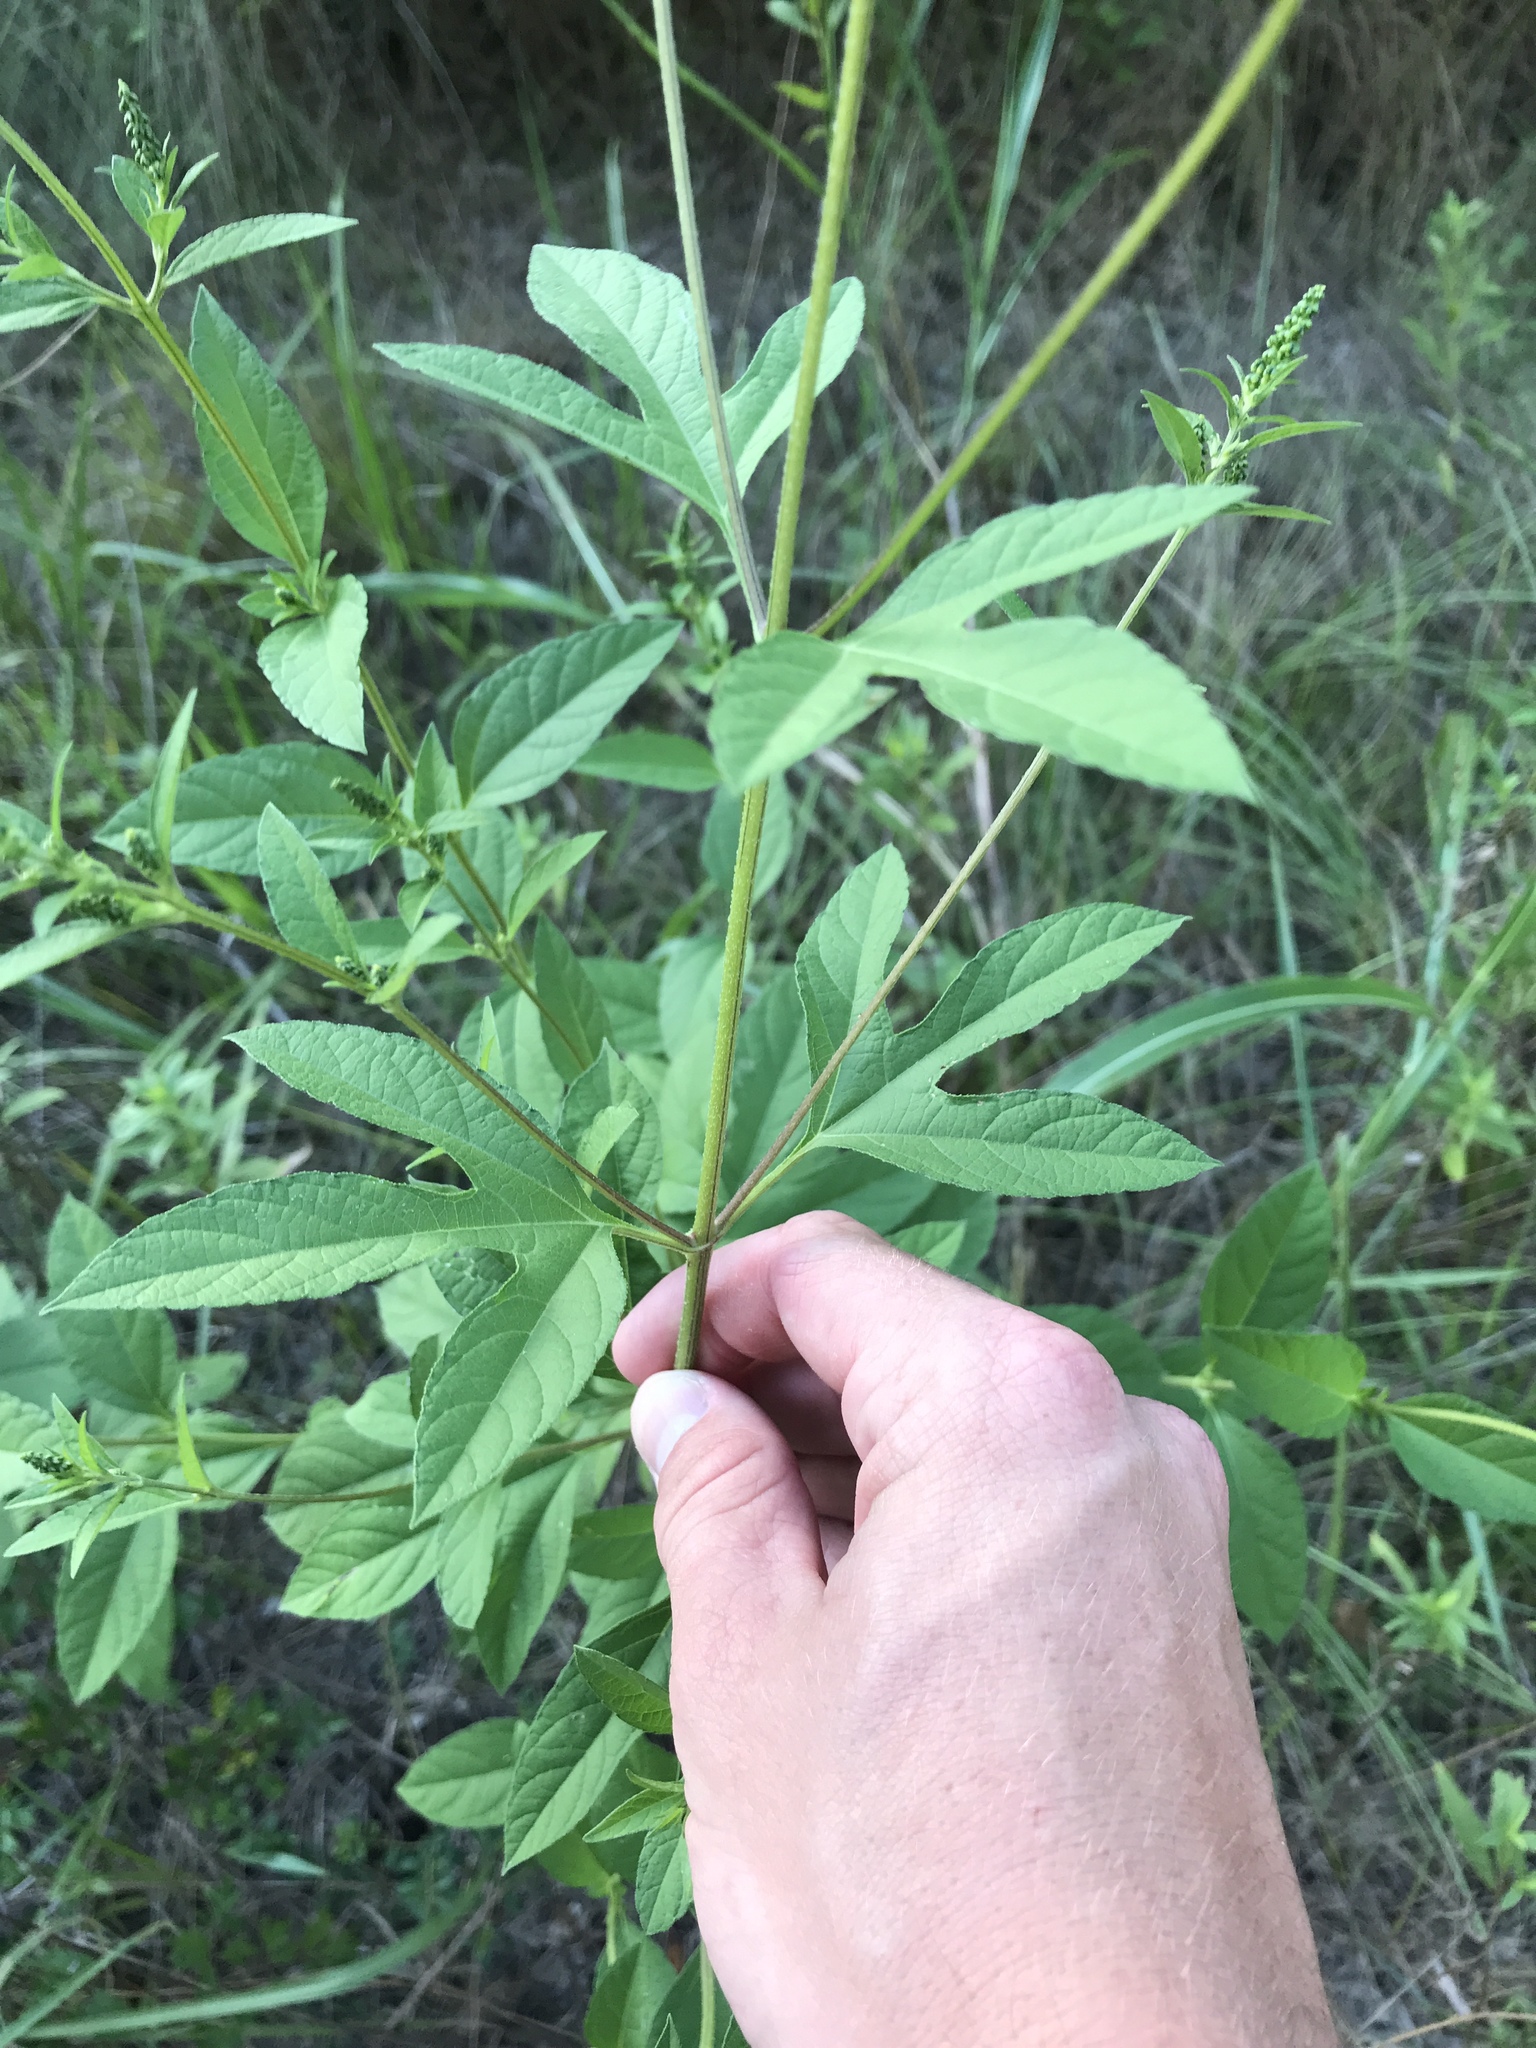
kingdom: Plantae
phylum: Tracheophyta
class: Magnoliopsida
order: Asterales
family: Asteraceae
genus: Ambrosia
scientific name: Ambrosia trifida
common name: Giant ragweed
